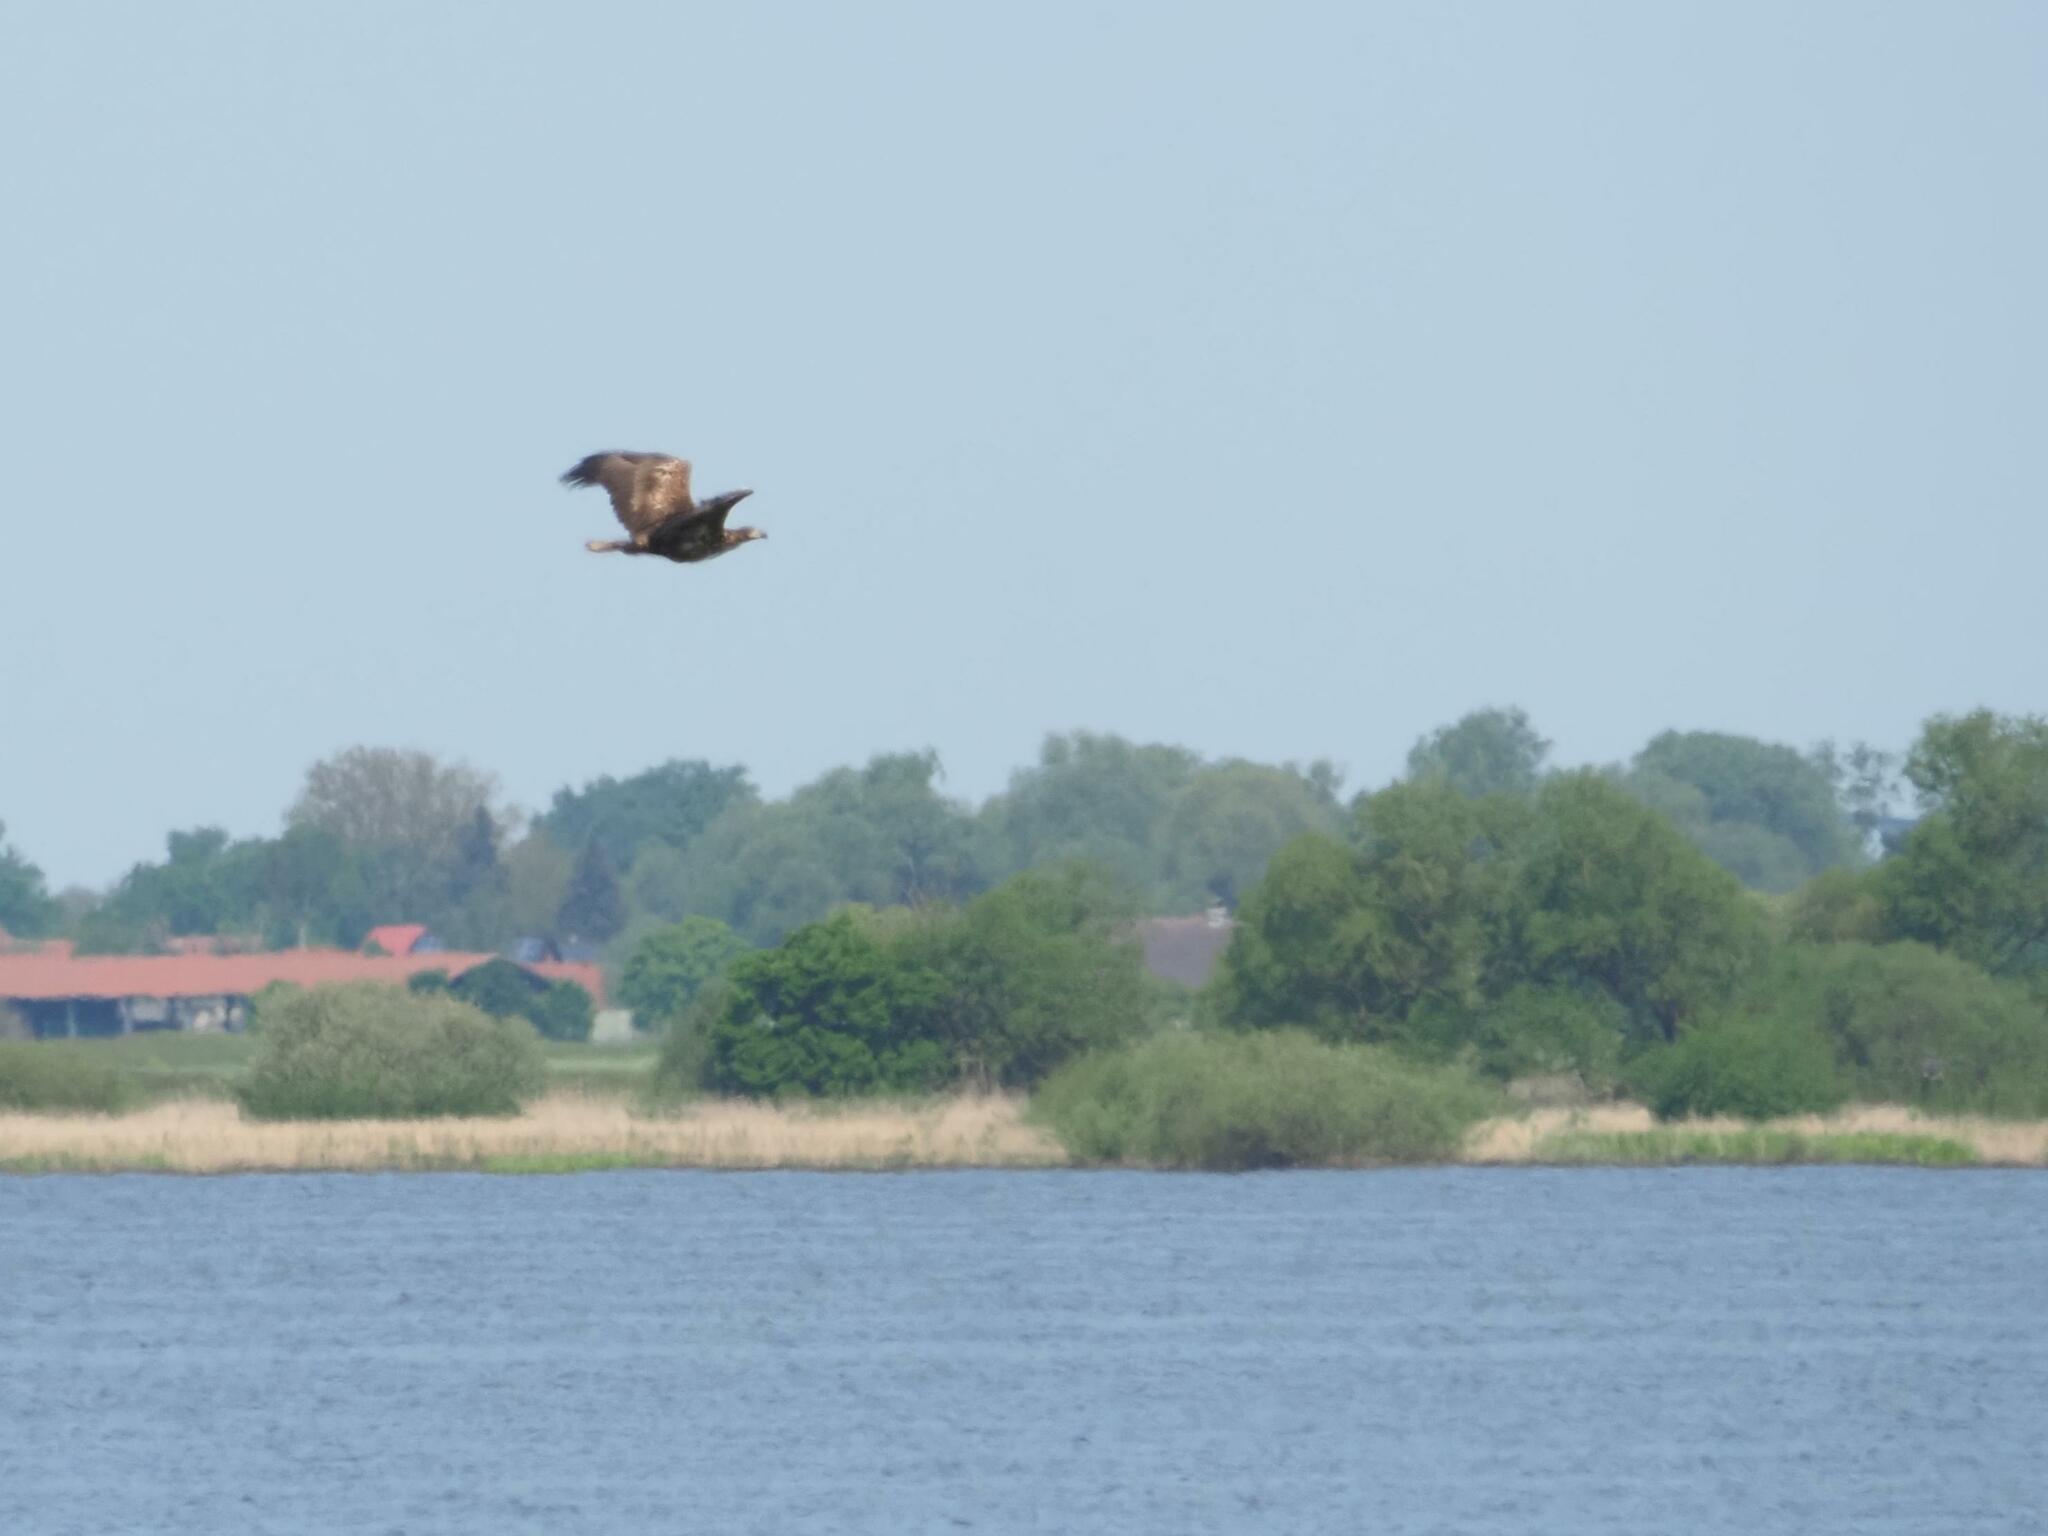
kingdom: Animalia
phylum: Chordata
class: Aves
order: Accipitriformes
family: Accipitridae
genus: Haliaeetus
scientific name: Haliaeetus albicilla
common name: White-tailed eagle
